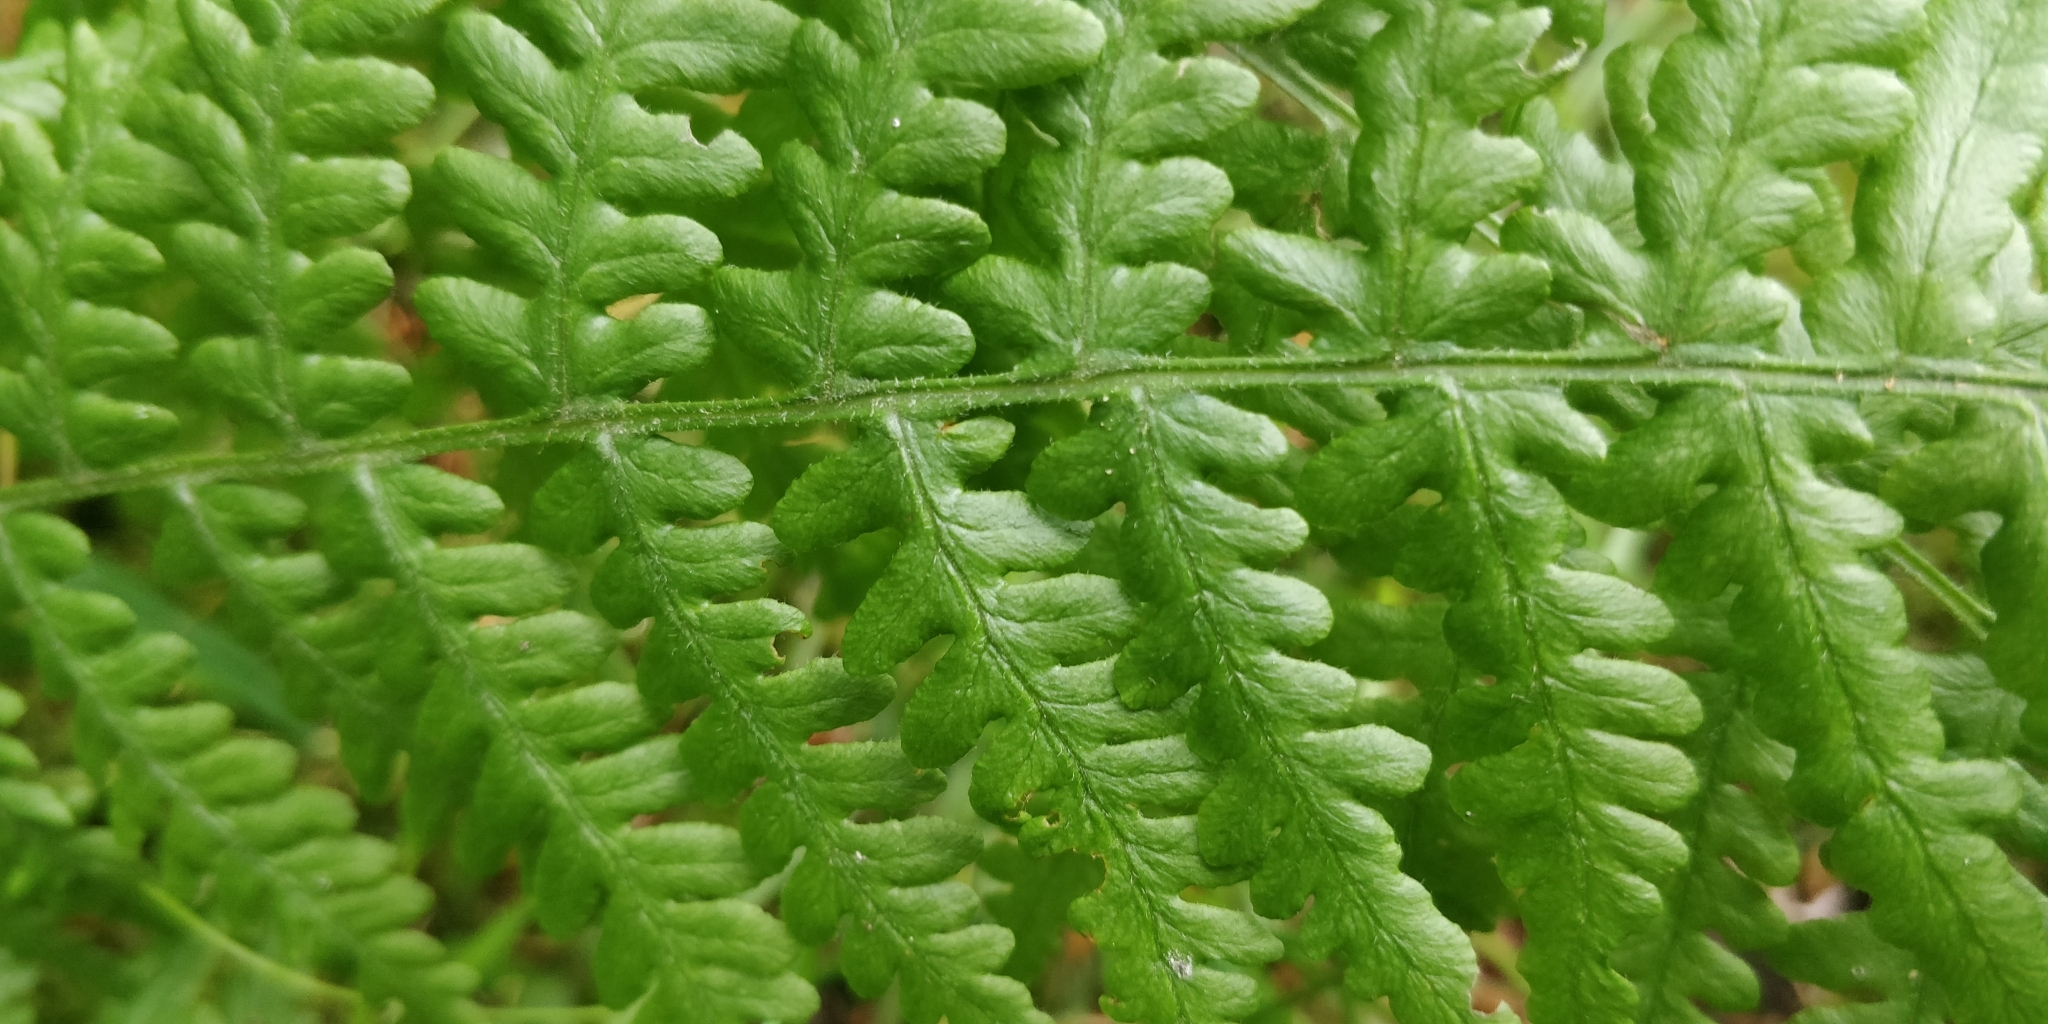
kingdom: Plantae
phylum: Tracheophyta
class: Polypodiopsida
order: Polypodiales
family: Dennstaedtiaceae
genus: Pteridium
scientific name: Pteridium aquilinum
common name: Bracken
